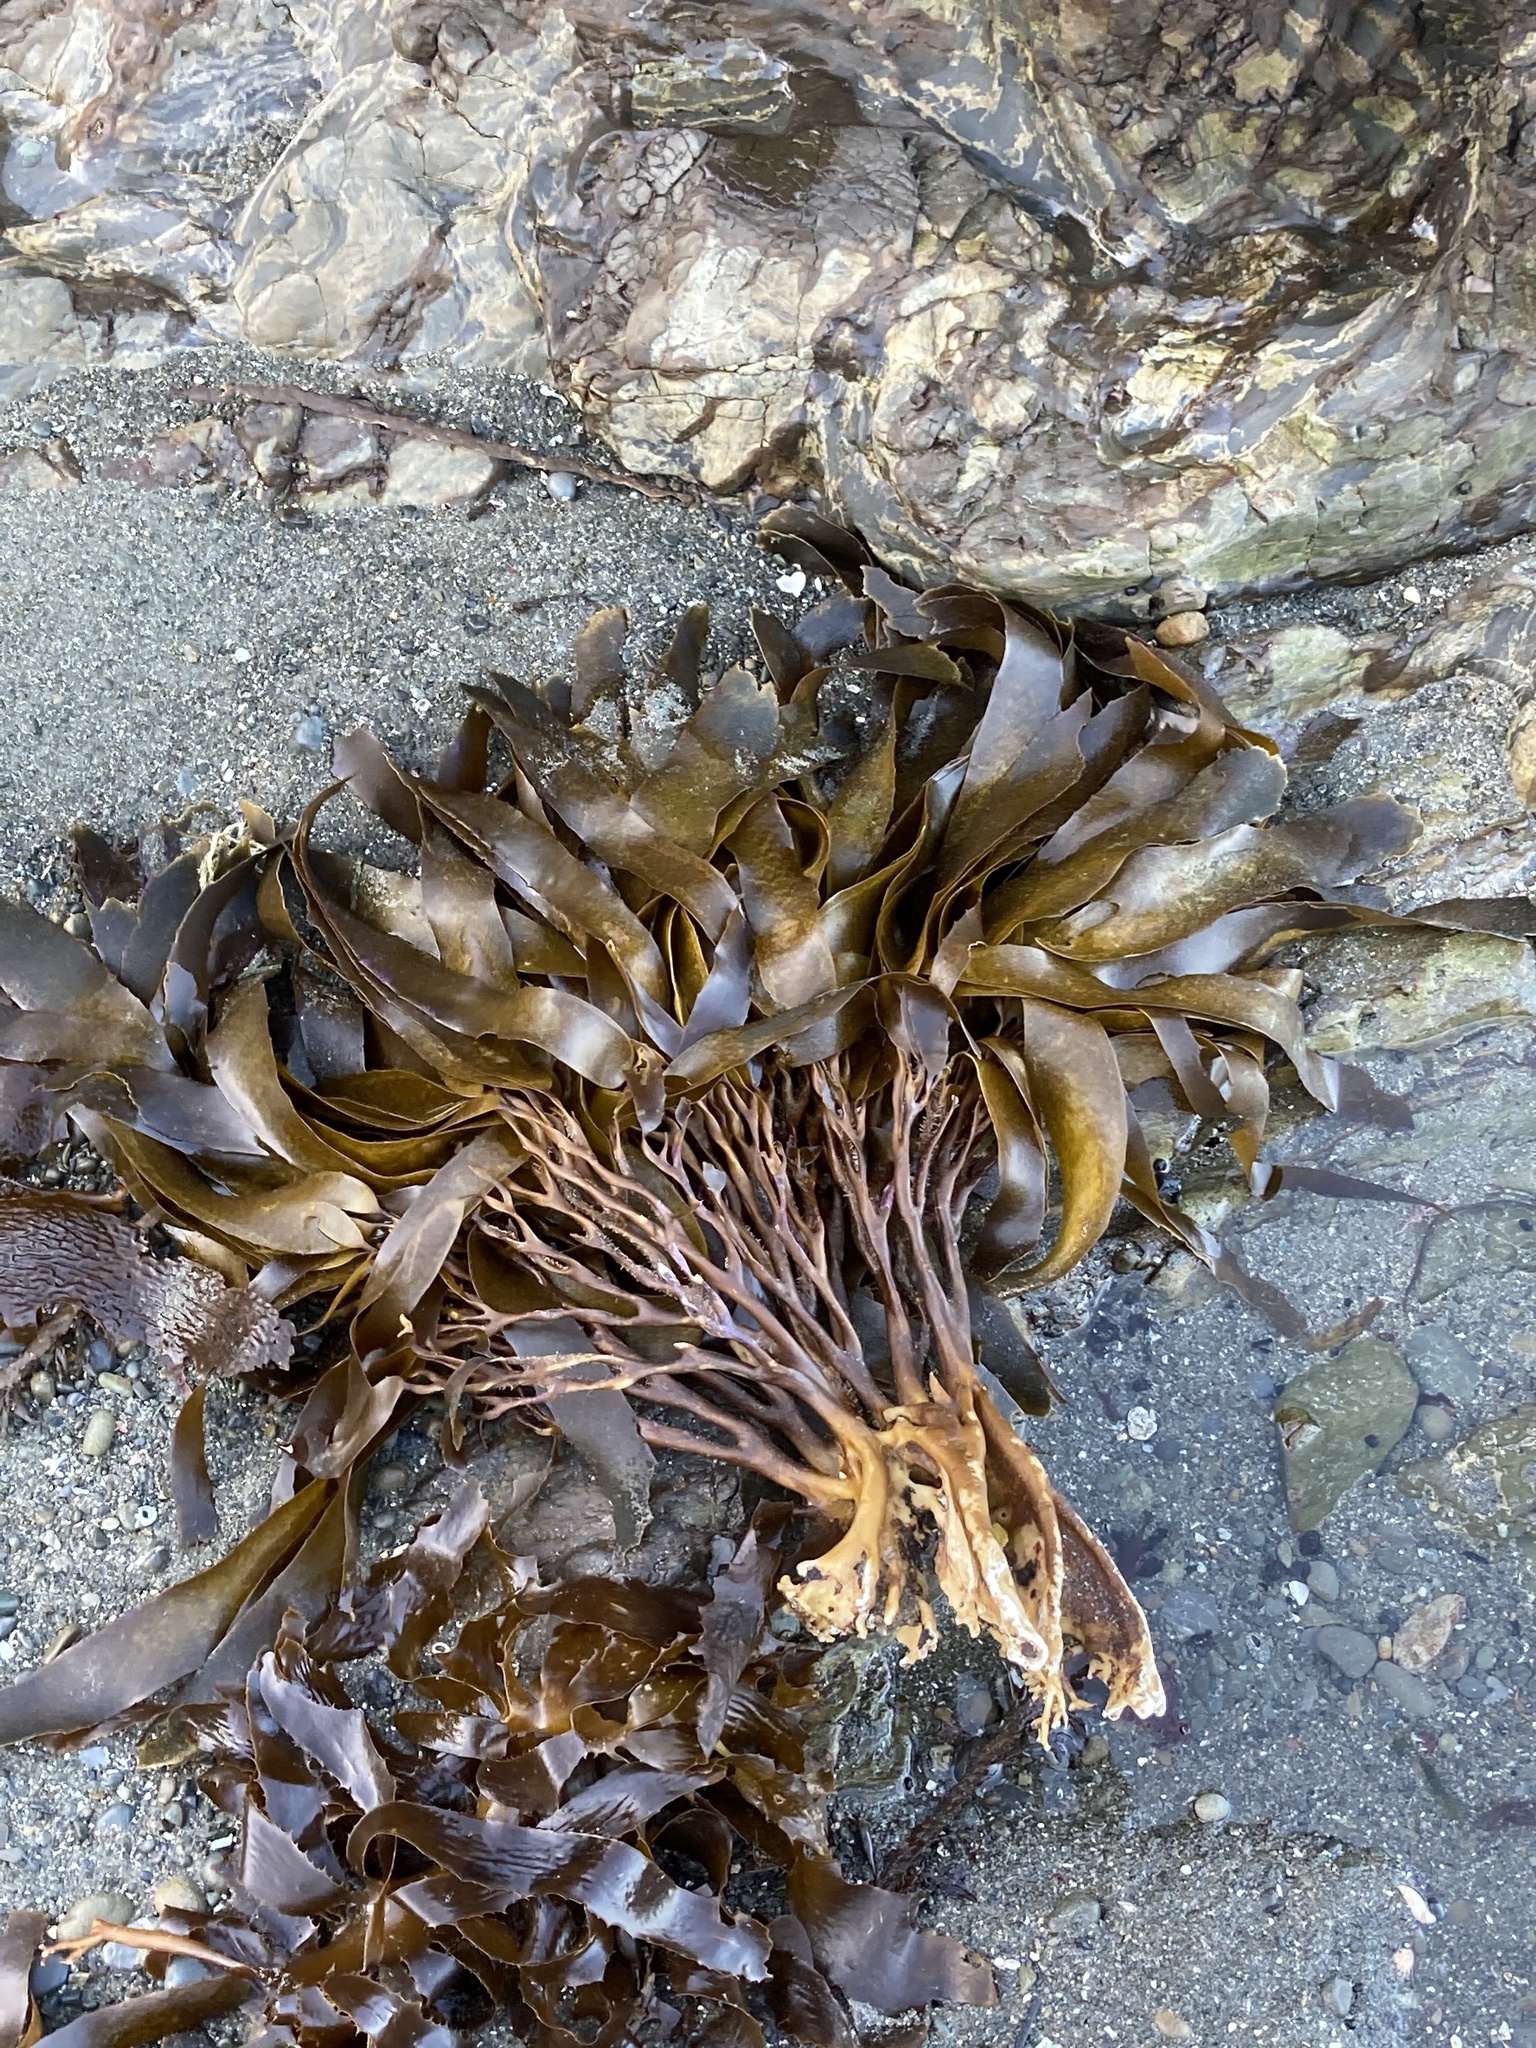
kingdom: Chromista
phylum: Ochrophyta
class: Phaeophyceae
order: Laminariales
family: Lessoniaceae
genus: Lessonia
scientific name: Lessonia variegata
